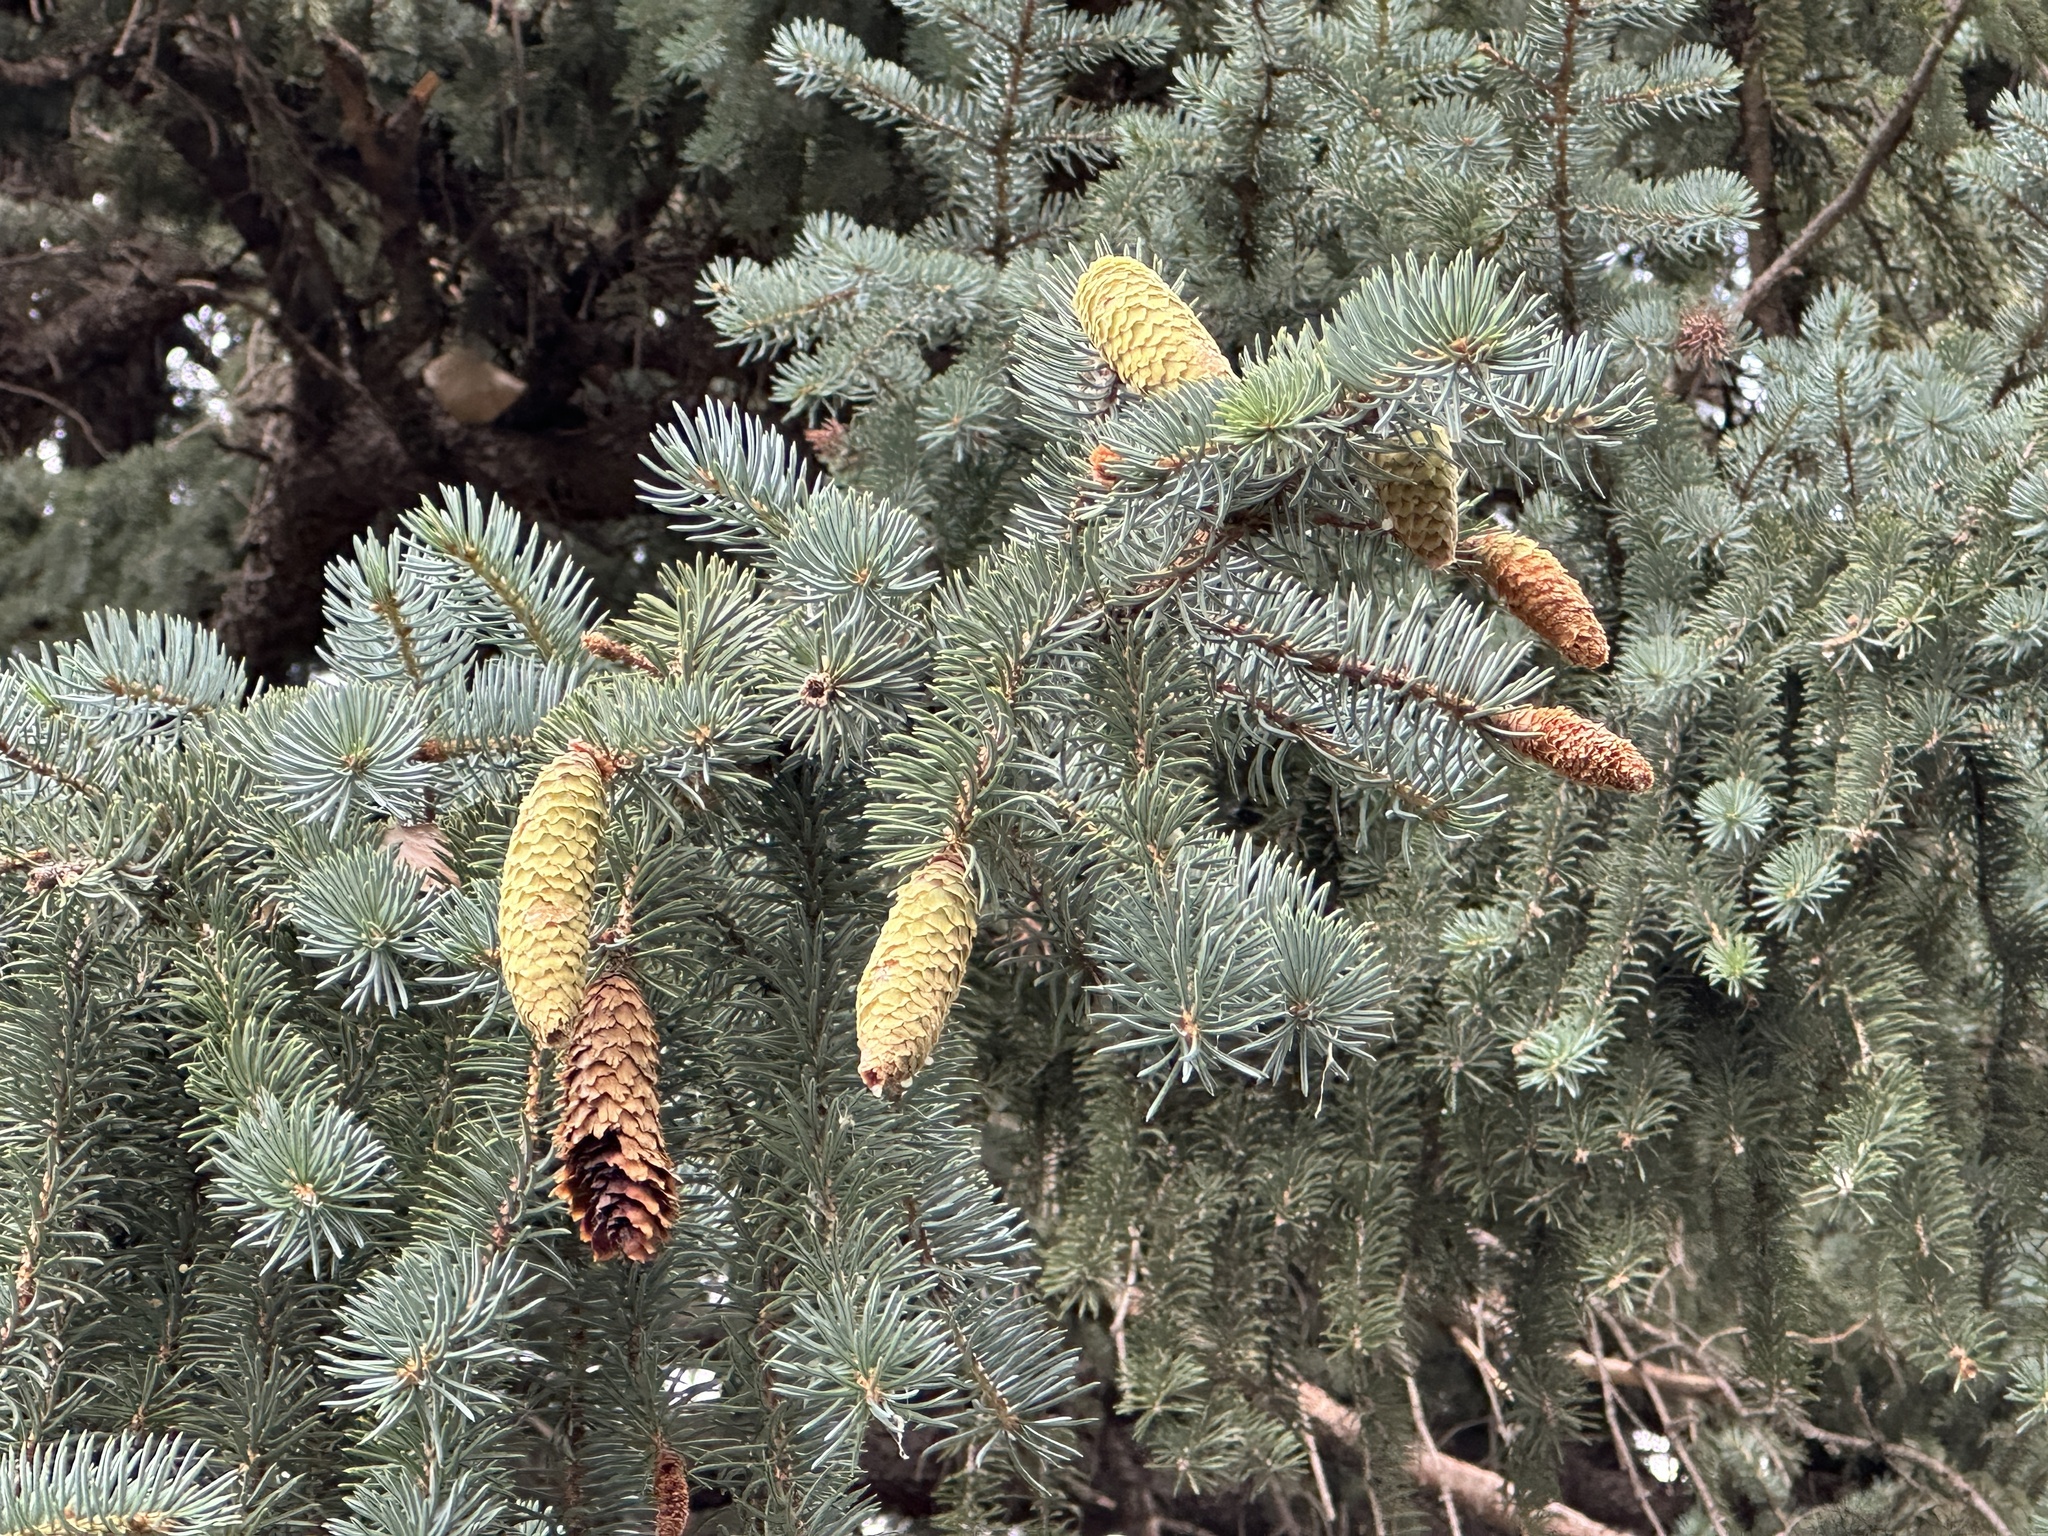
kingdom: Plantae
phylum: Tracheophyta
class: Pinopsida
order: Pinales
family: Pinaceae
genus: Picea
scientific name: Picea pungens
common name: Colorado spruce
